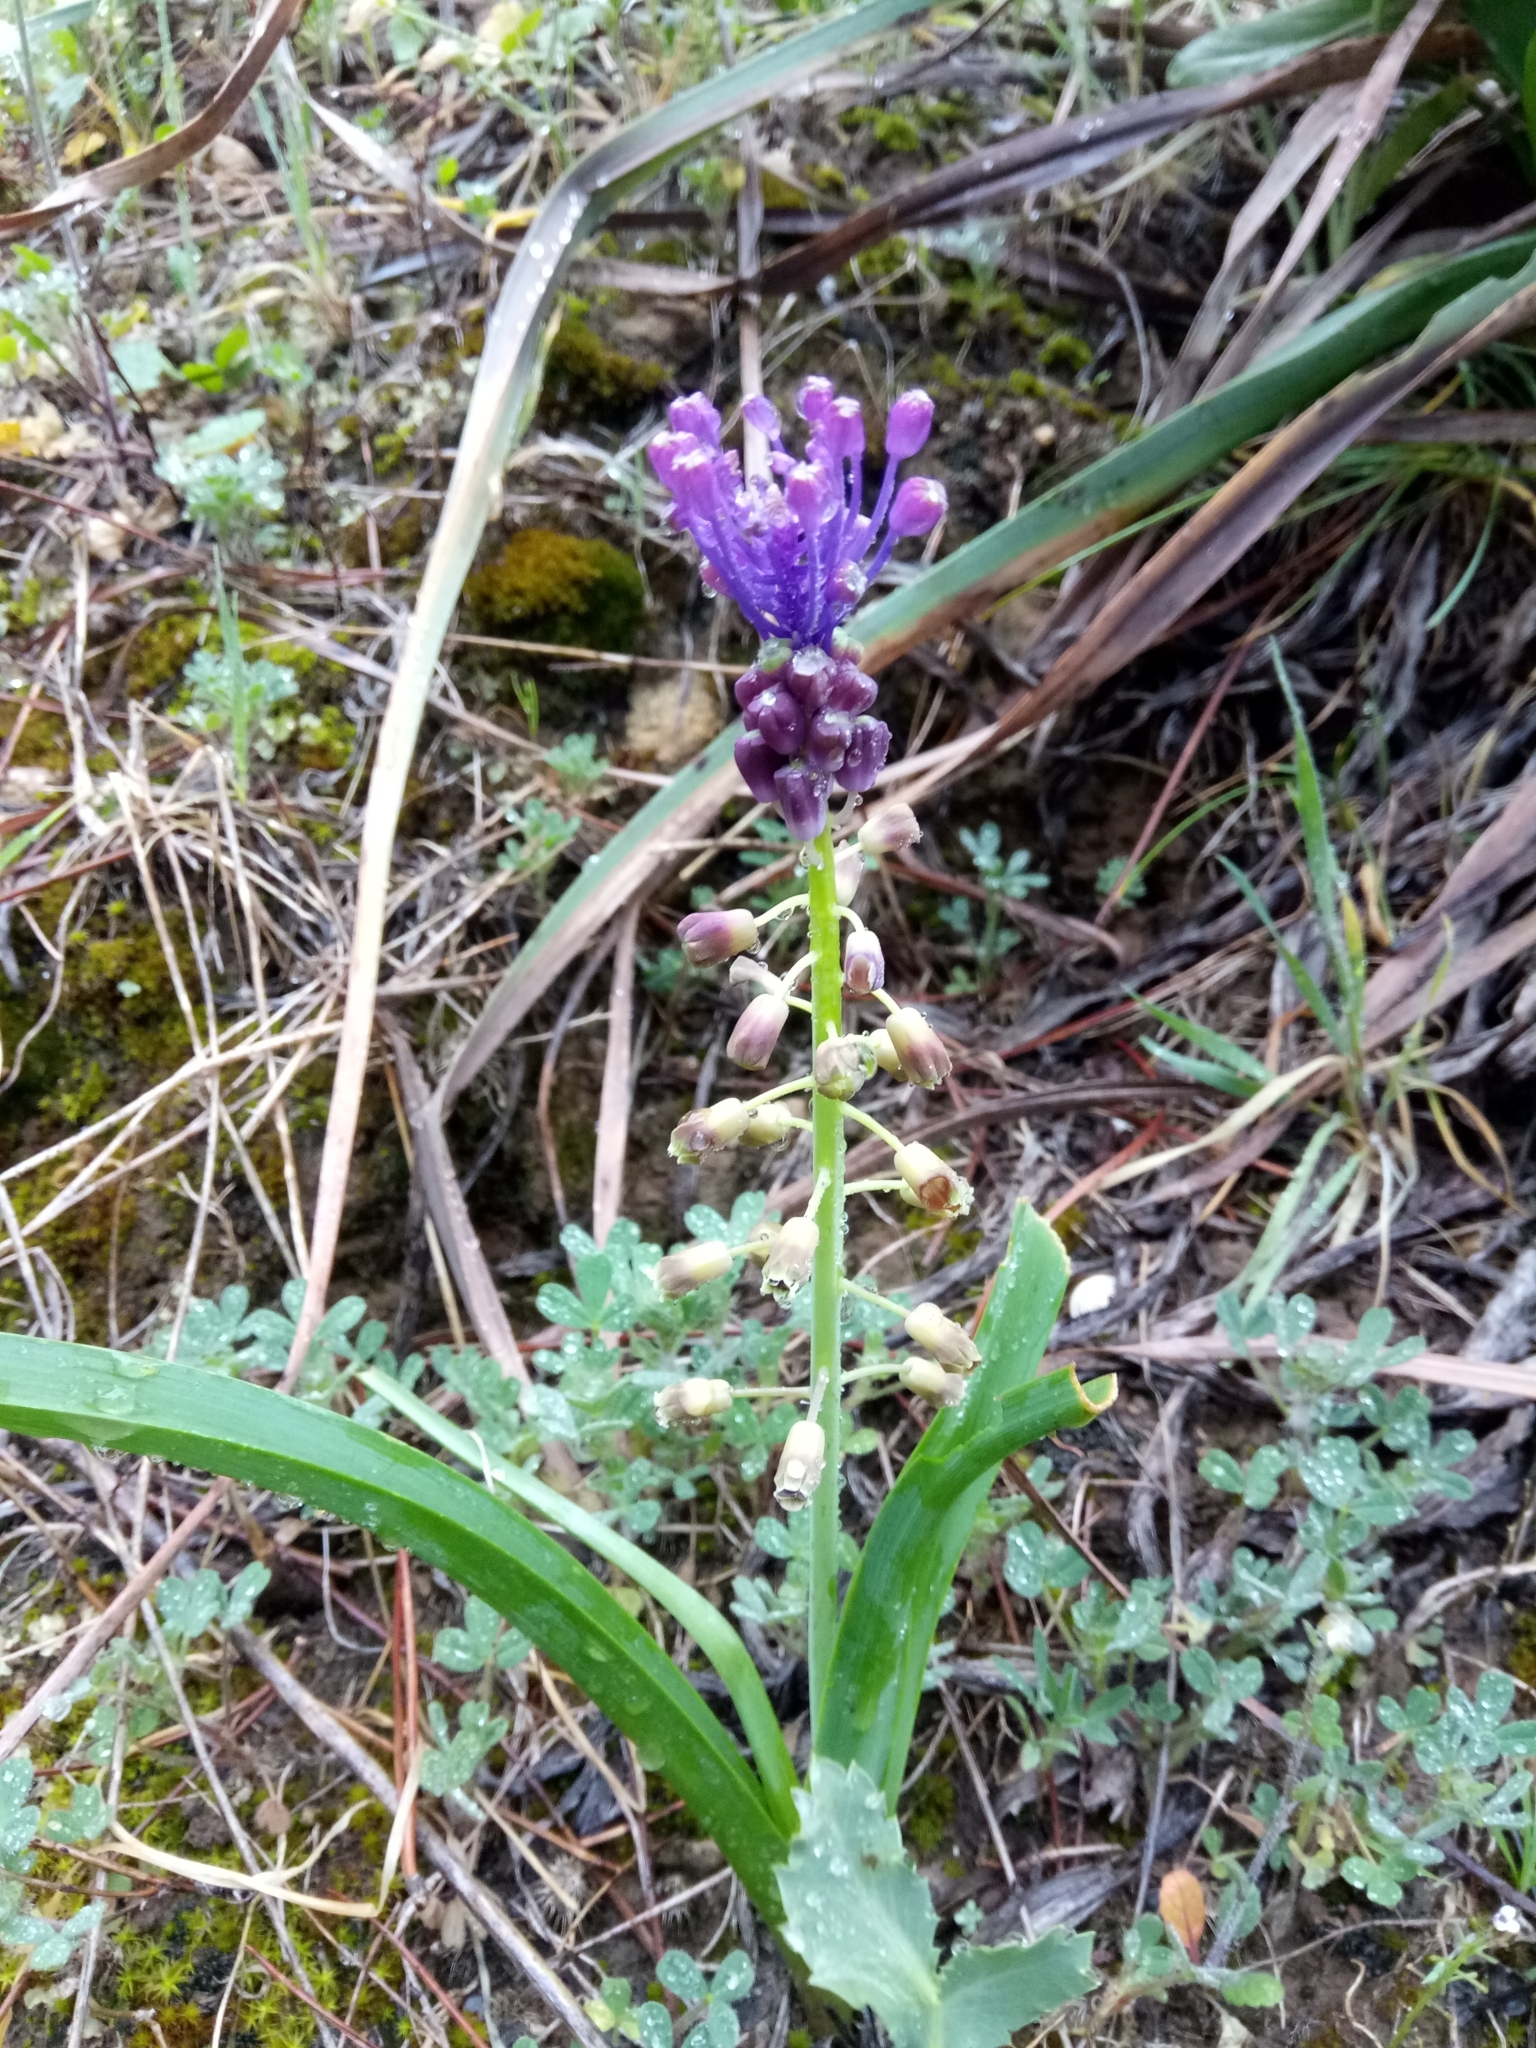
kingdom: Plantae
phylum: Tracheophyta
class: Liliopsida
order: Asparagales
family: Asparagaceae
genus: Muscari
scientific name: Muscari comosum
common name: Tassel hyacinth
